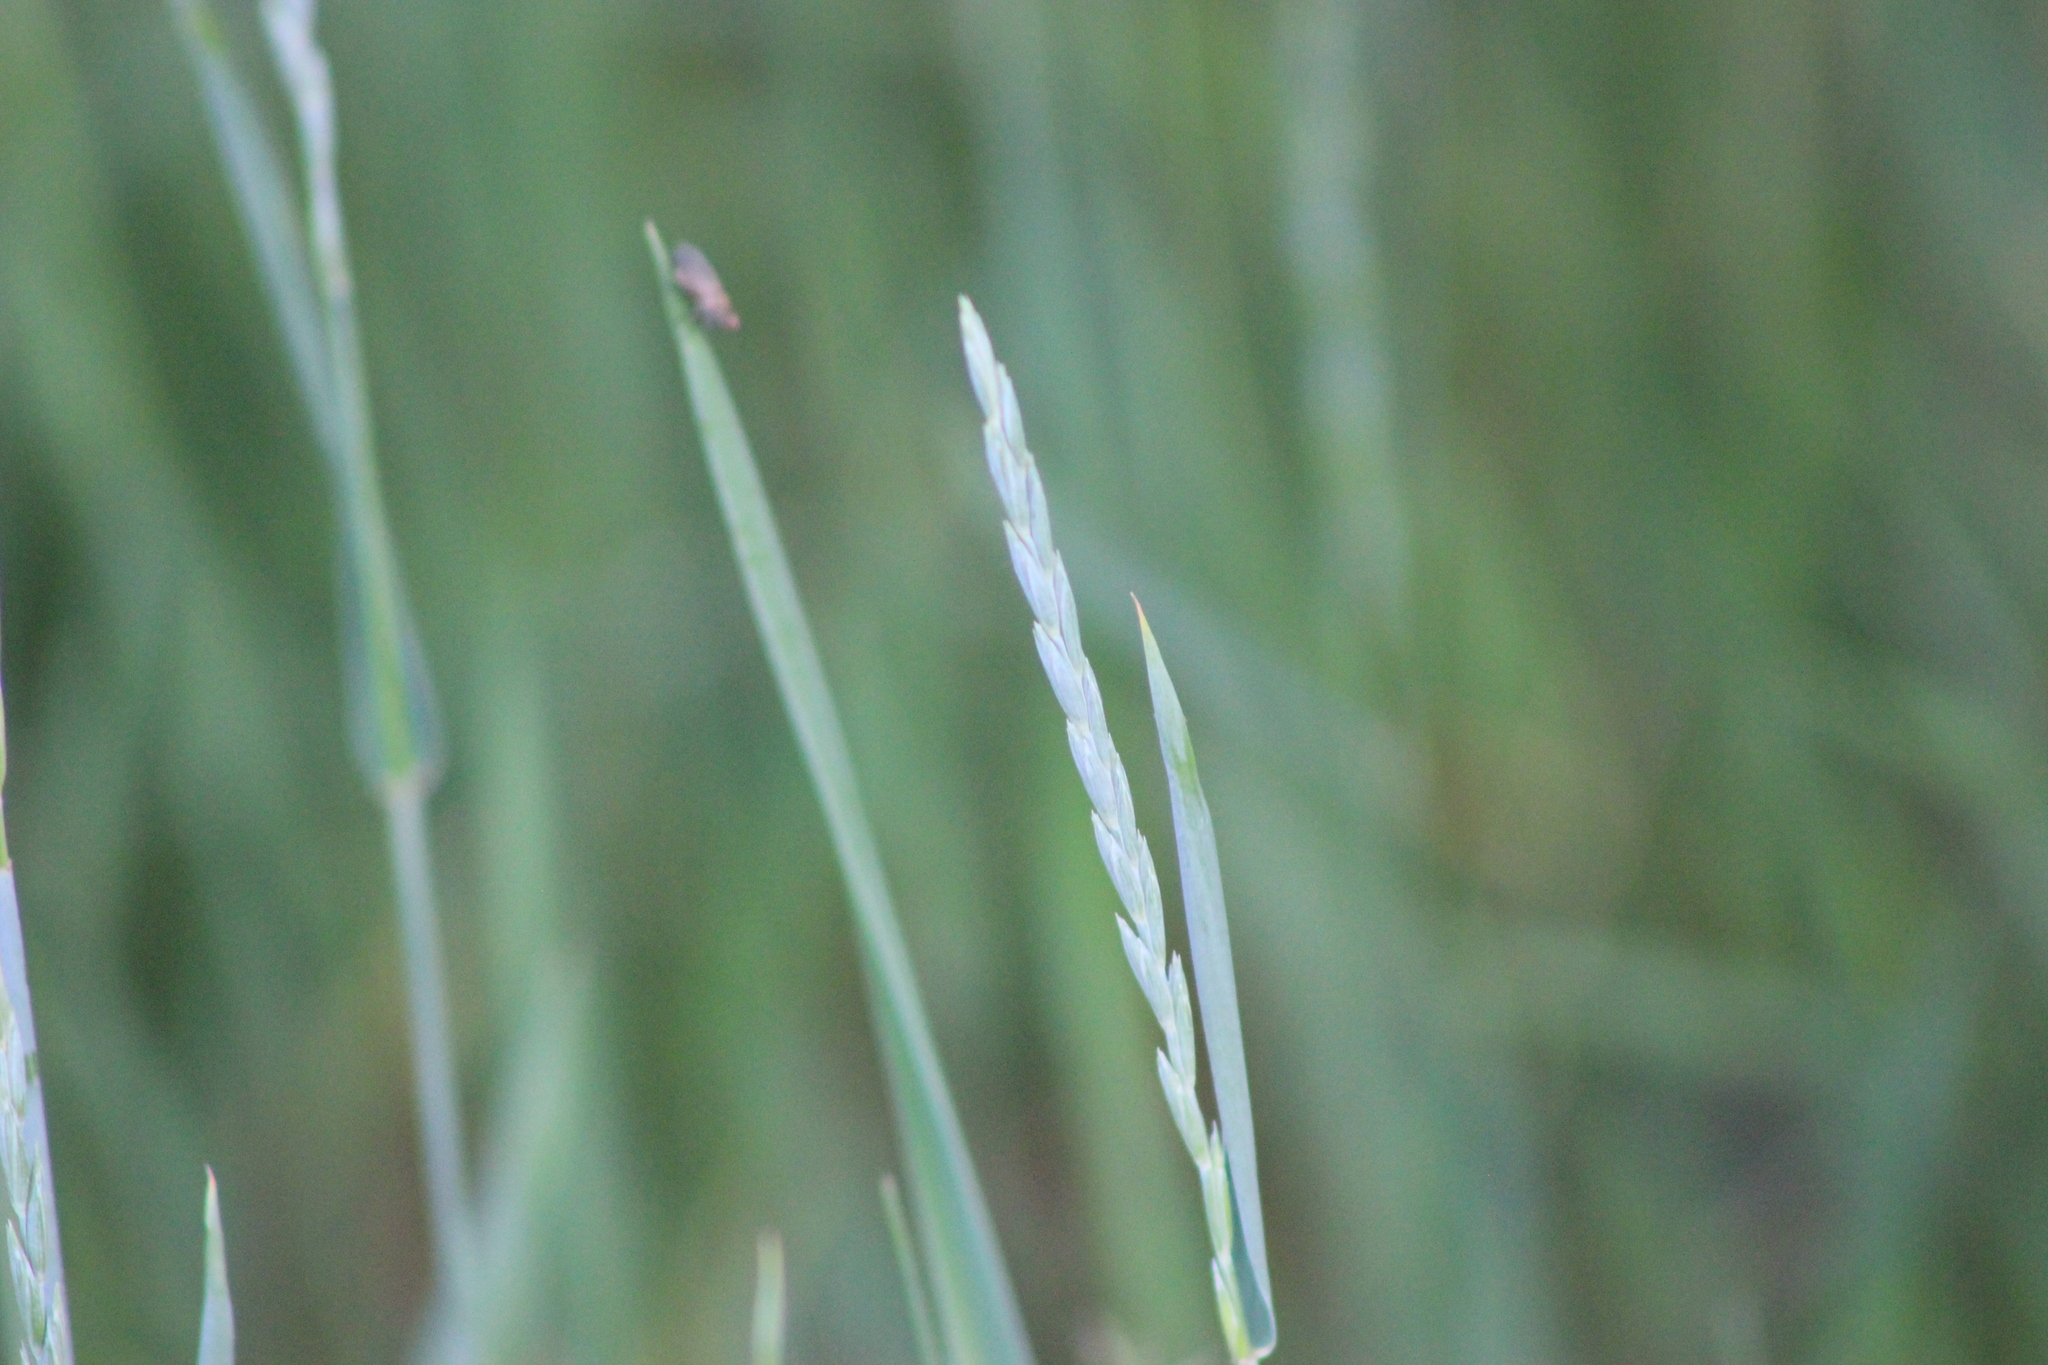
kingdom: Plantae
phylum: Tracheophyta
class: Liliopsida
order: Poales
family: Poaceae
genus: Elymus
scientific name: Elymus repens
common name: Quackgrass
